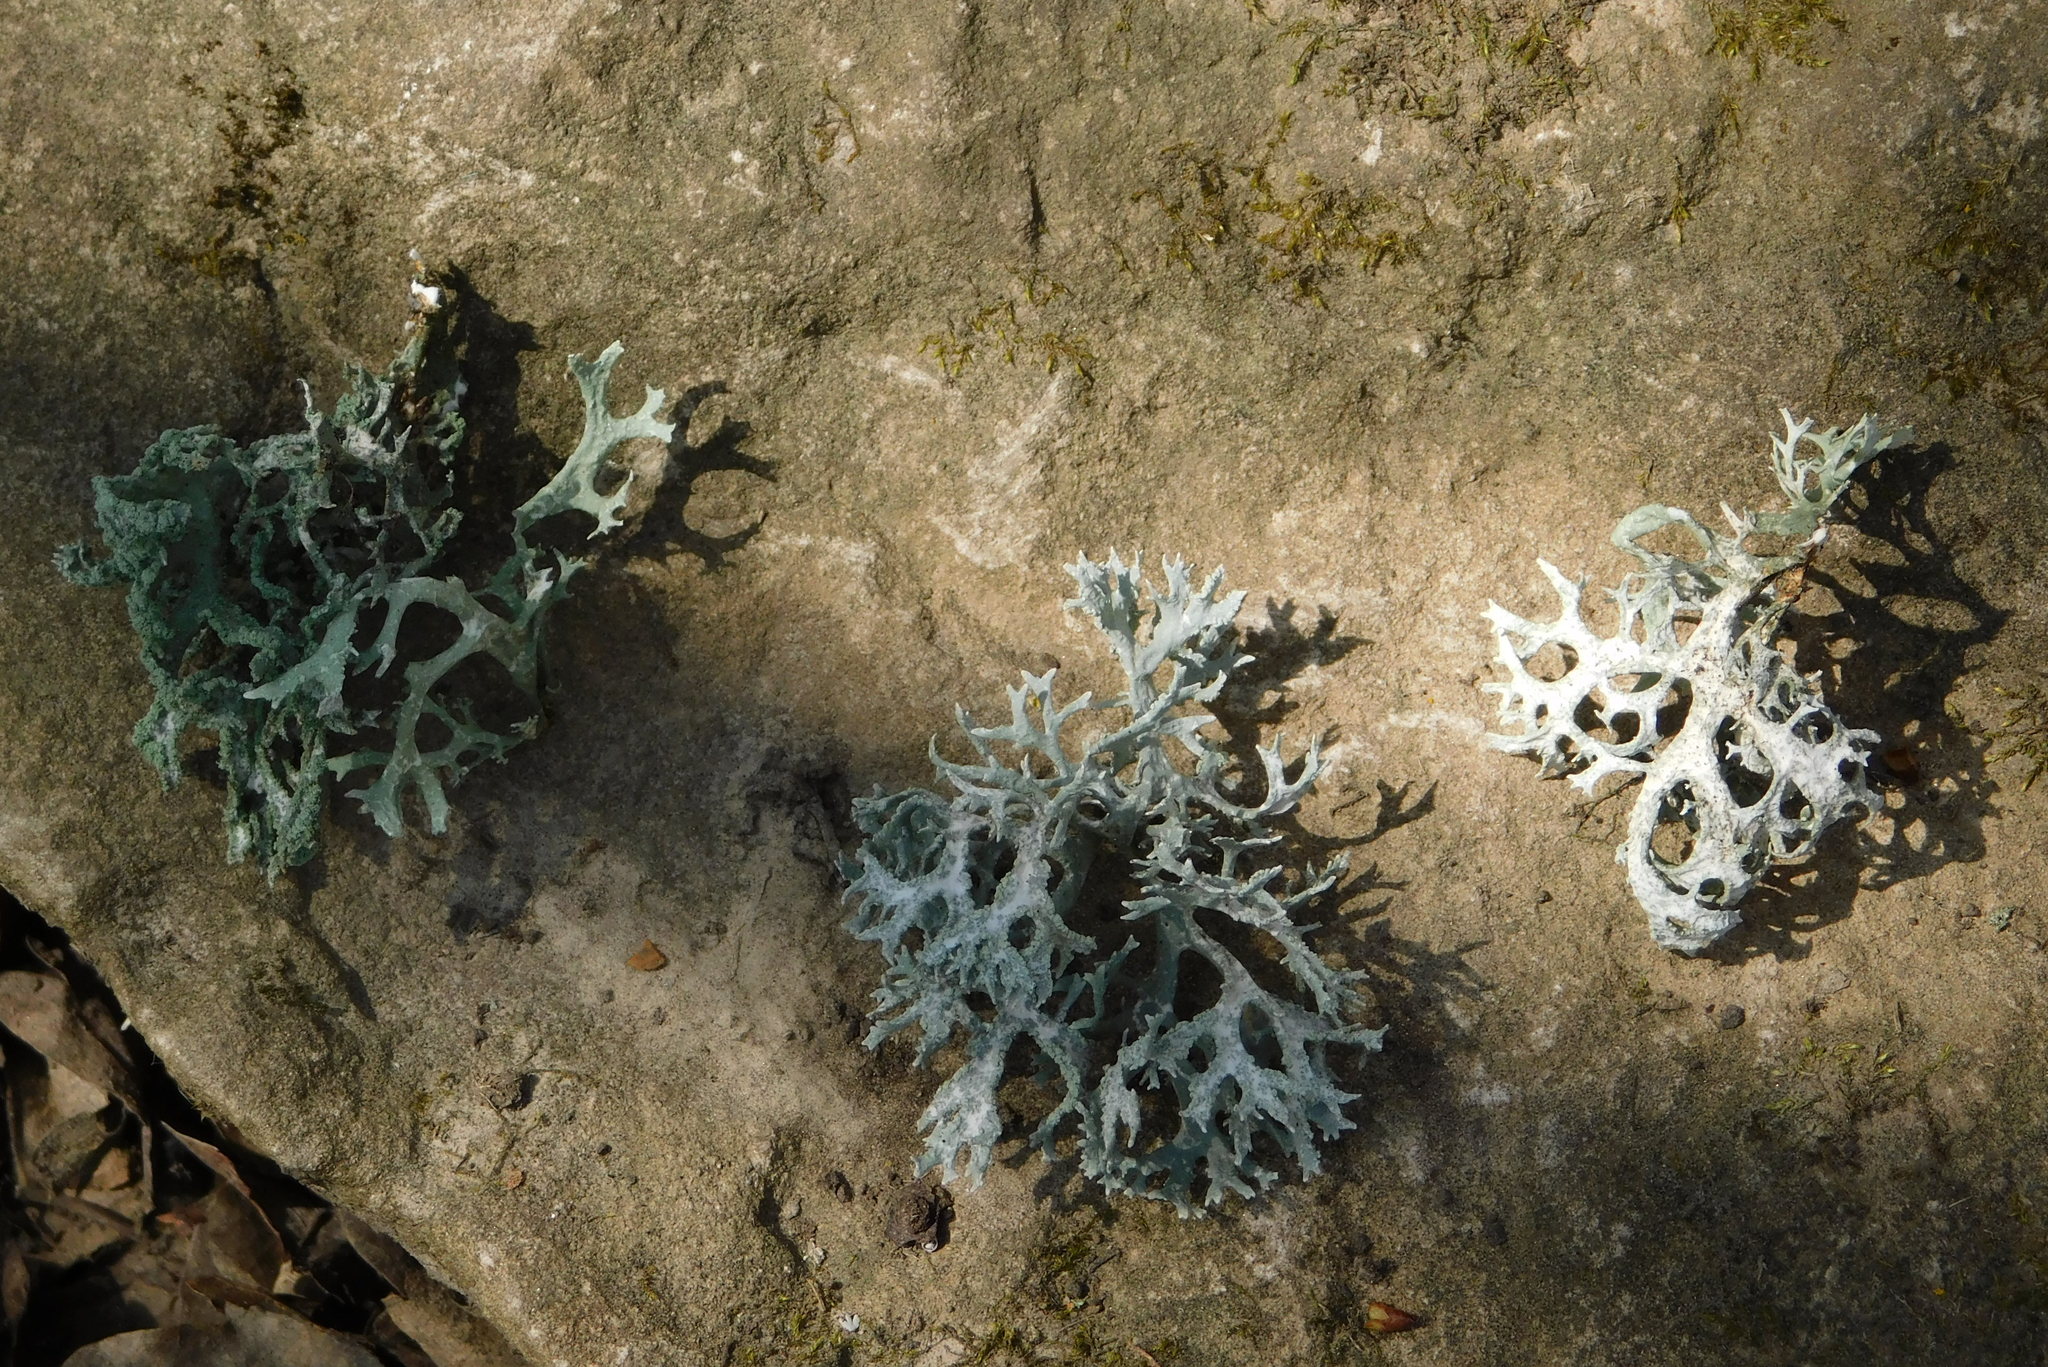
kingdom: Fungi
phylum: Ascomycota
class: Lecanoromycetes
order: Lecanorales
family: Parmeliaceae
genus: Evernia
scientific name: Evernia prunastri
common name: Oak moss
